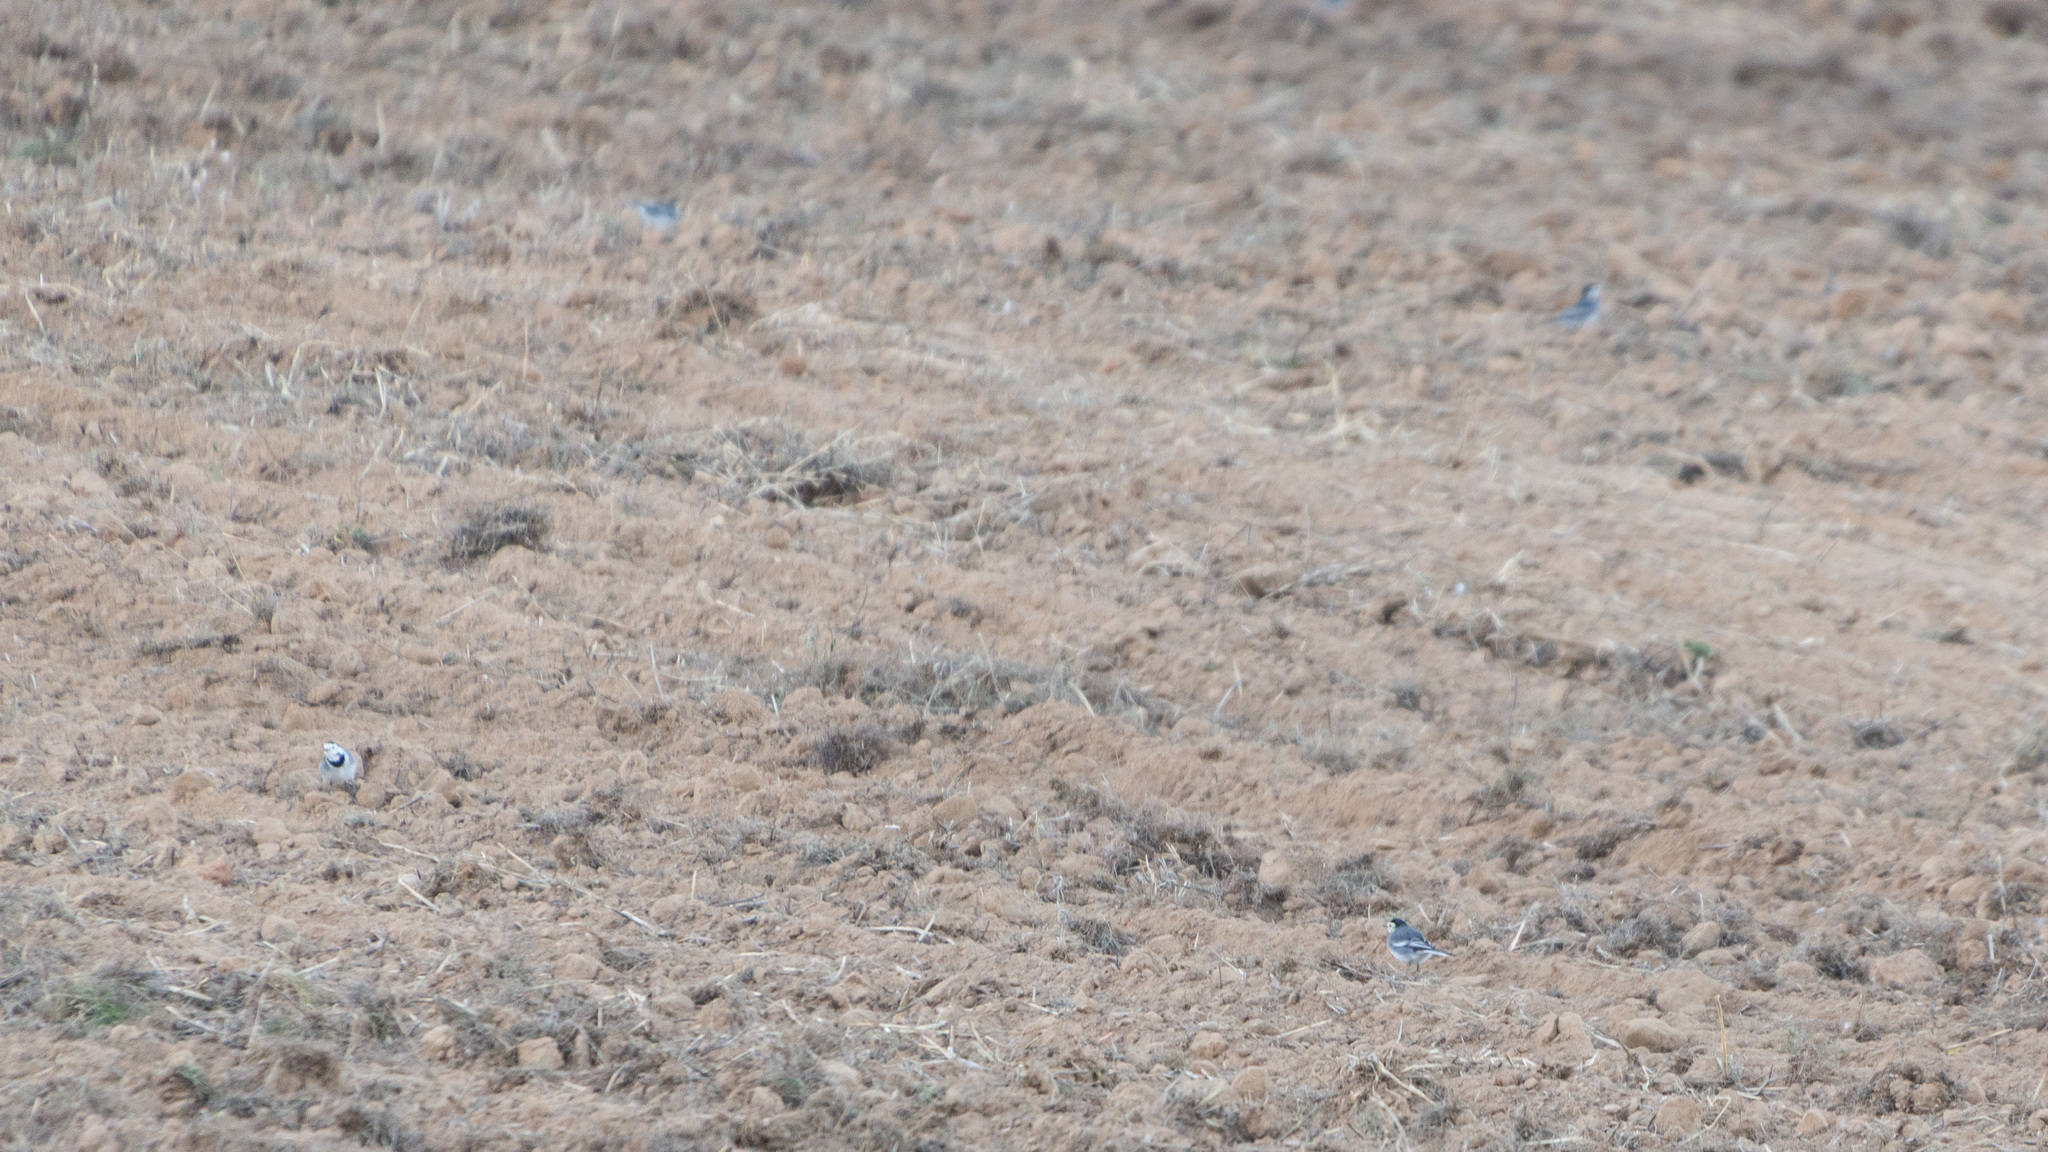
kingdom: Animalia
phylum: Chordata
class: Aves
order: Passeriformes
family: Motacillidae
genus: Motacilla
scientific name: Motacilla alba
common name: White wagtail
